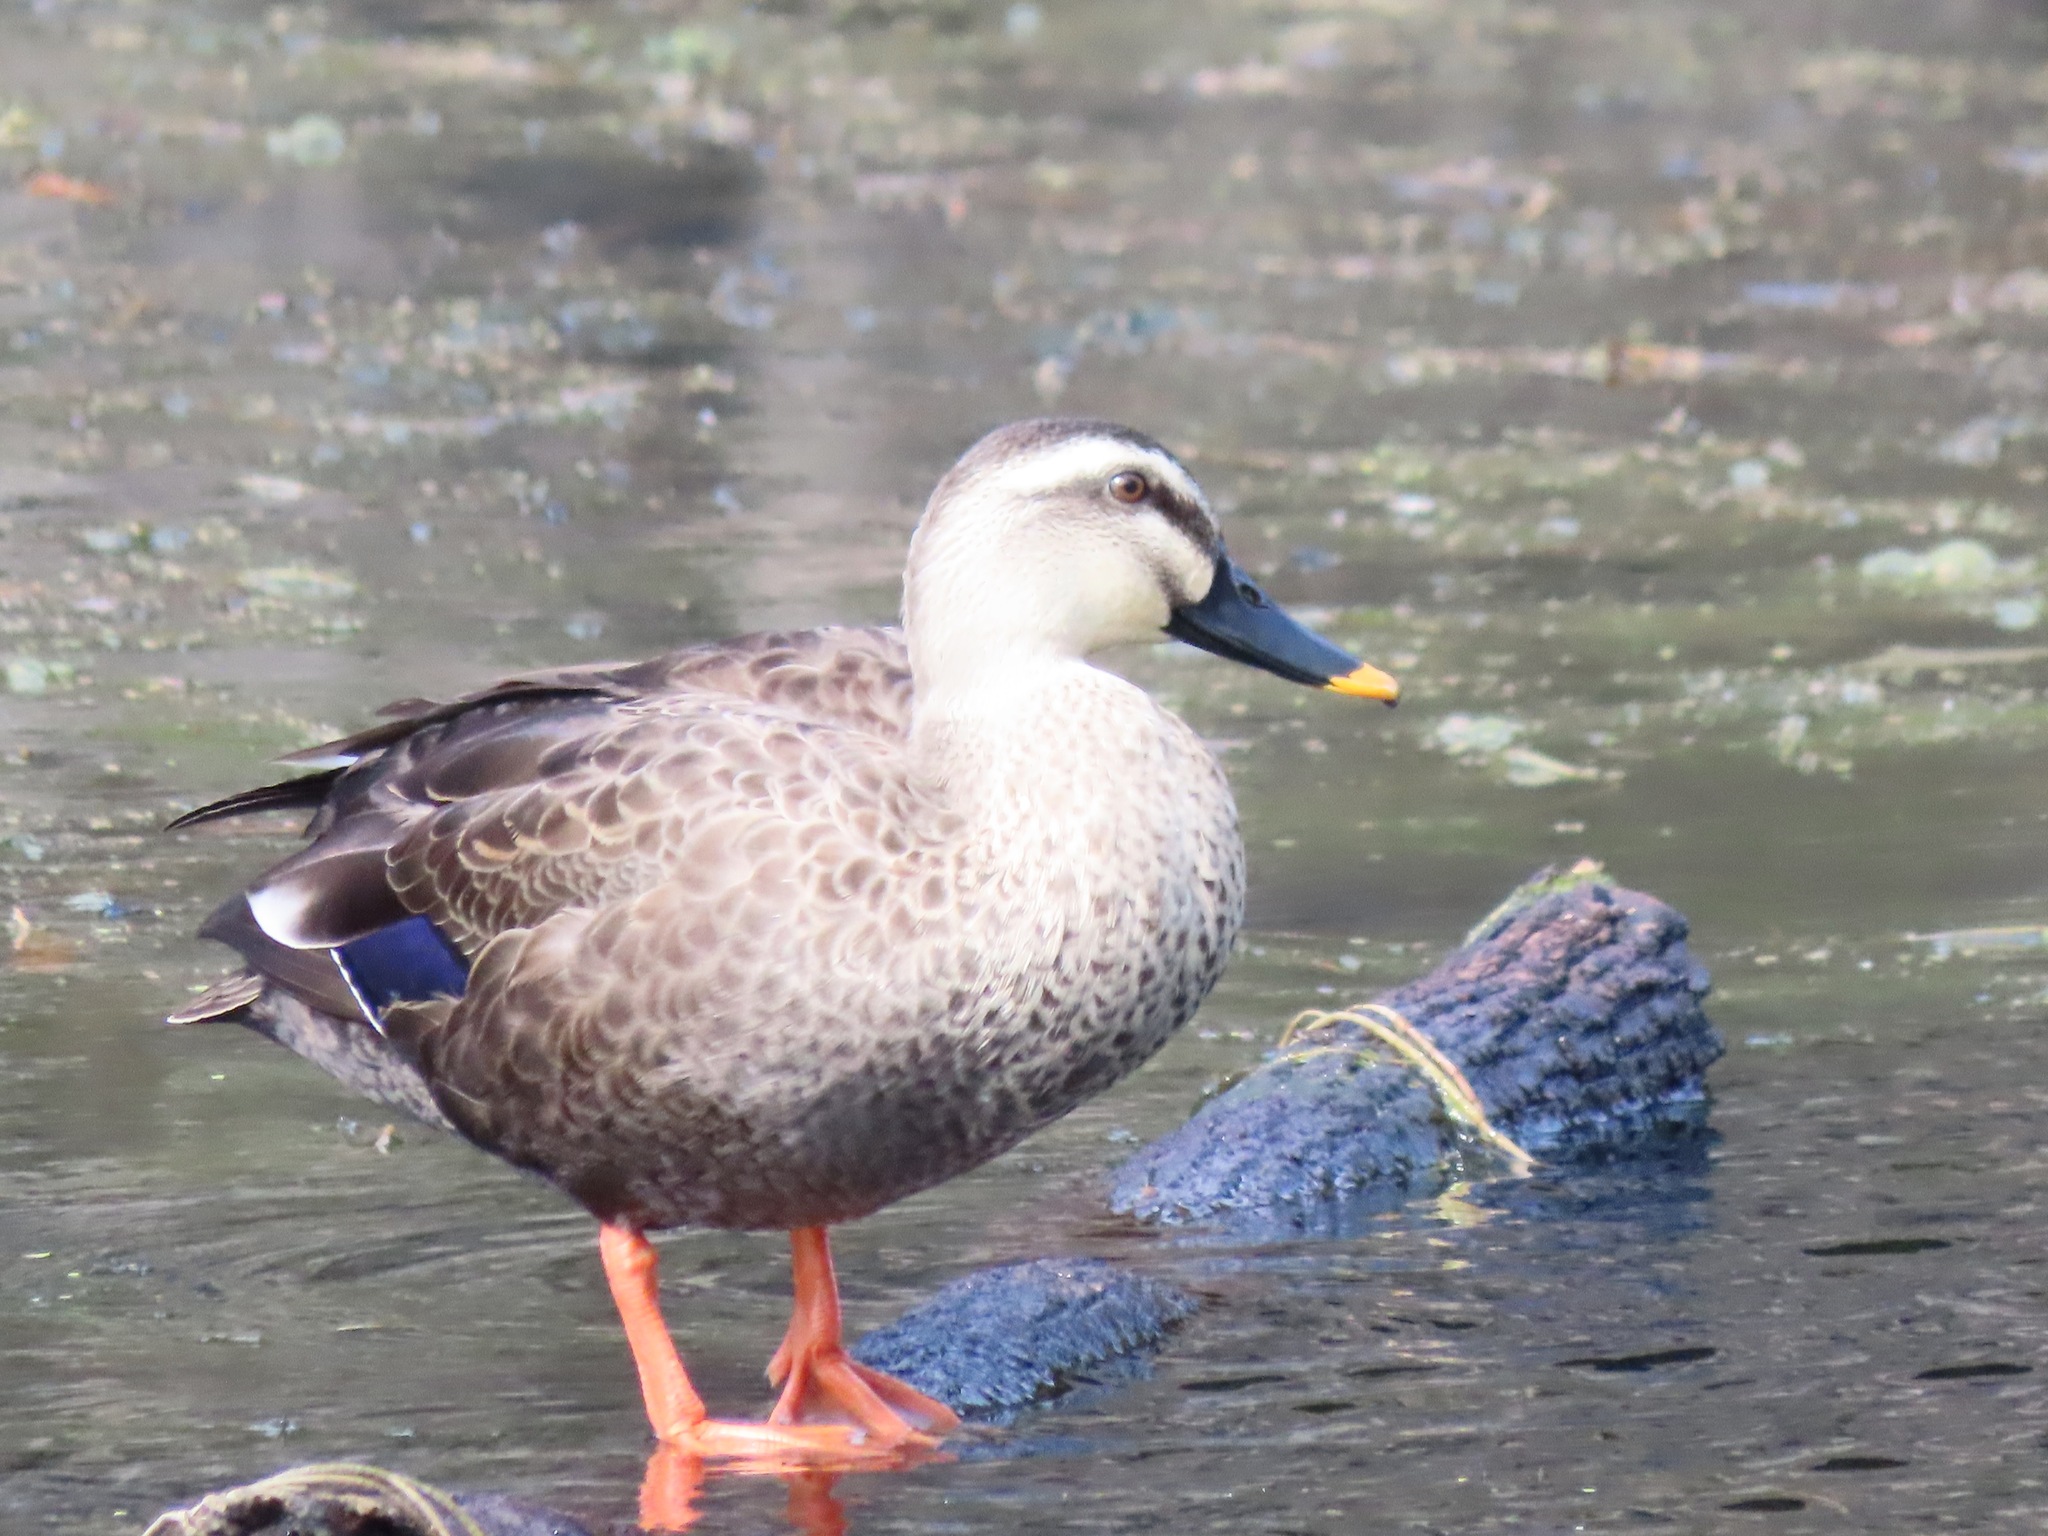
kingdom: Animalia
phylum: Chordata
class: Aves
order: Anseriformes
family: Anatidae
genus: Anas
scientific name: Anas zonorhyncha
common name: Eastern spot-billed duck
